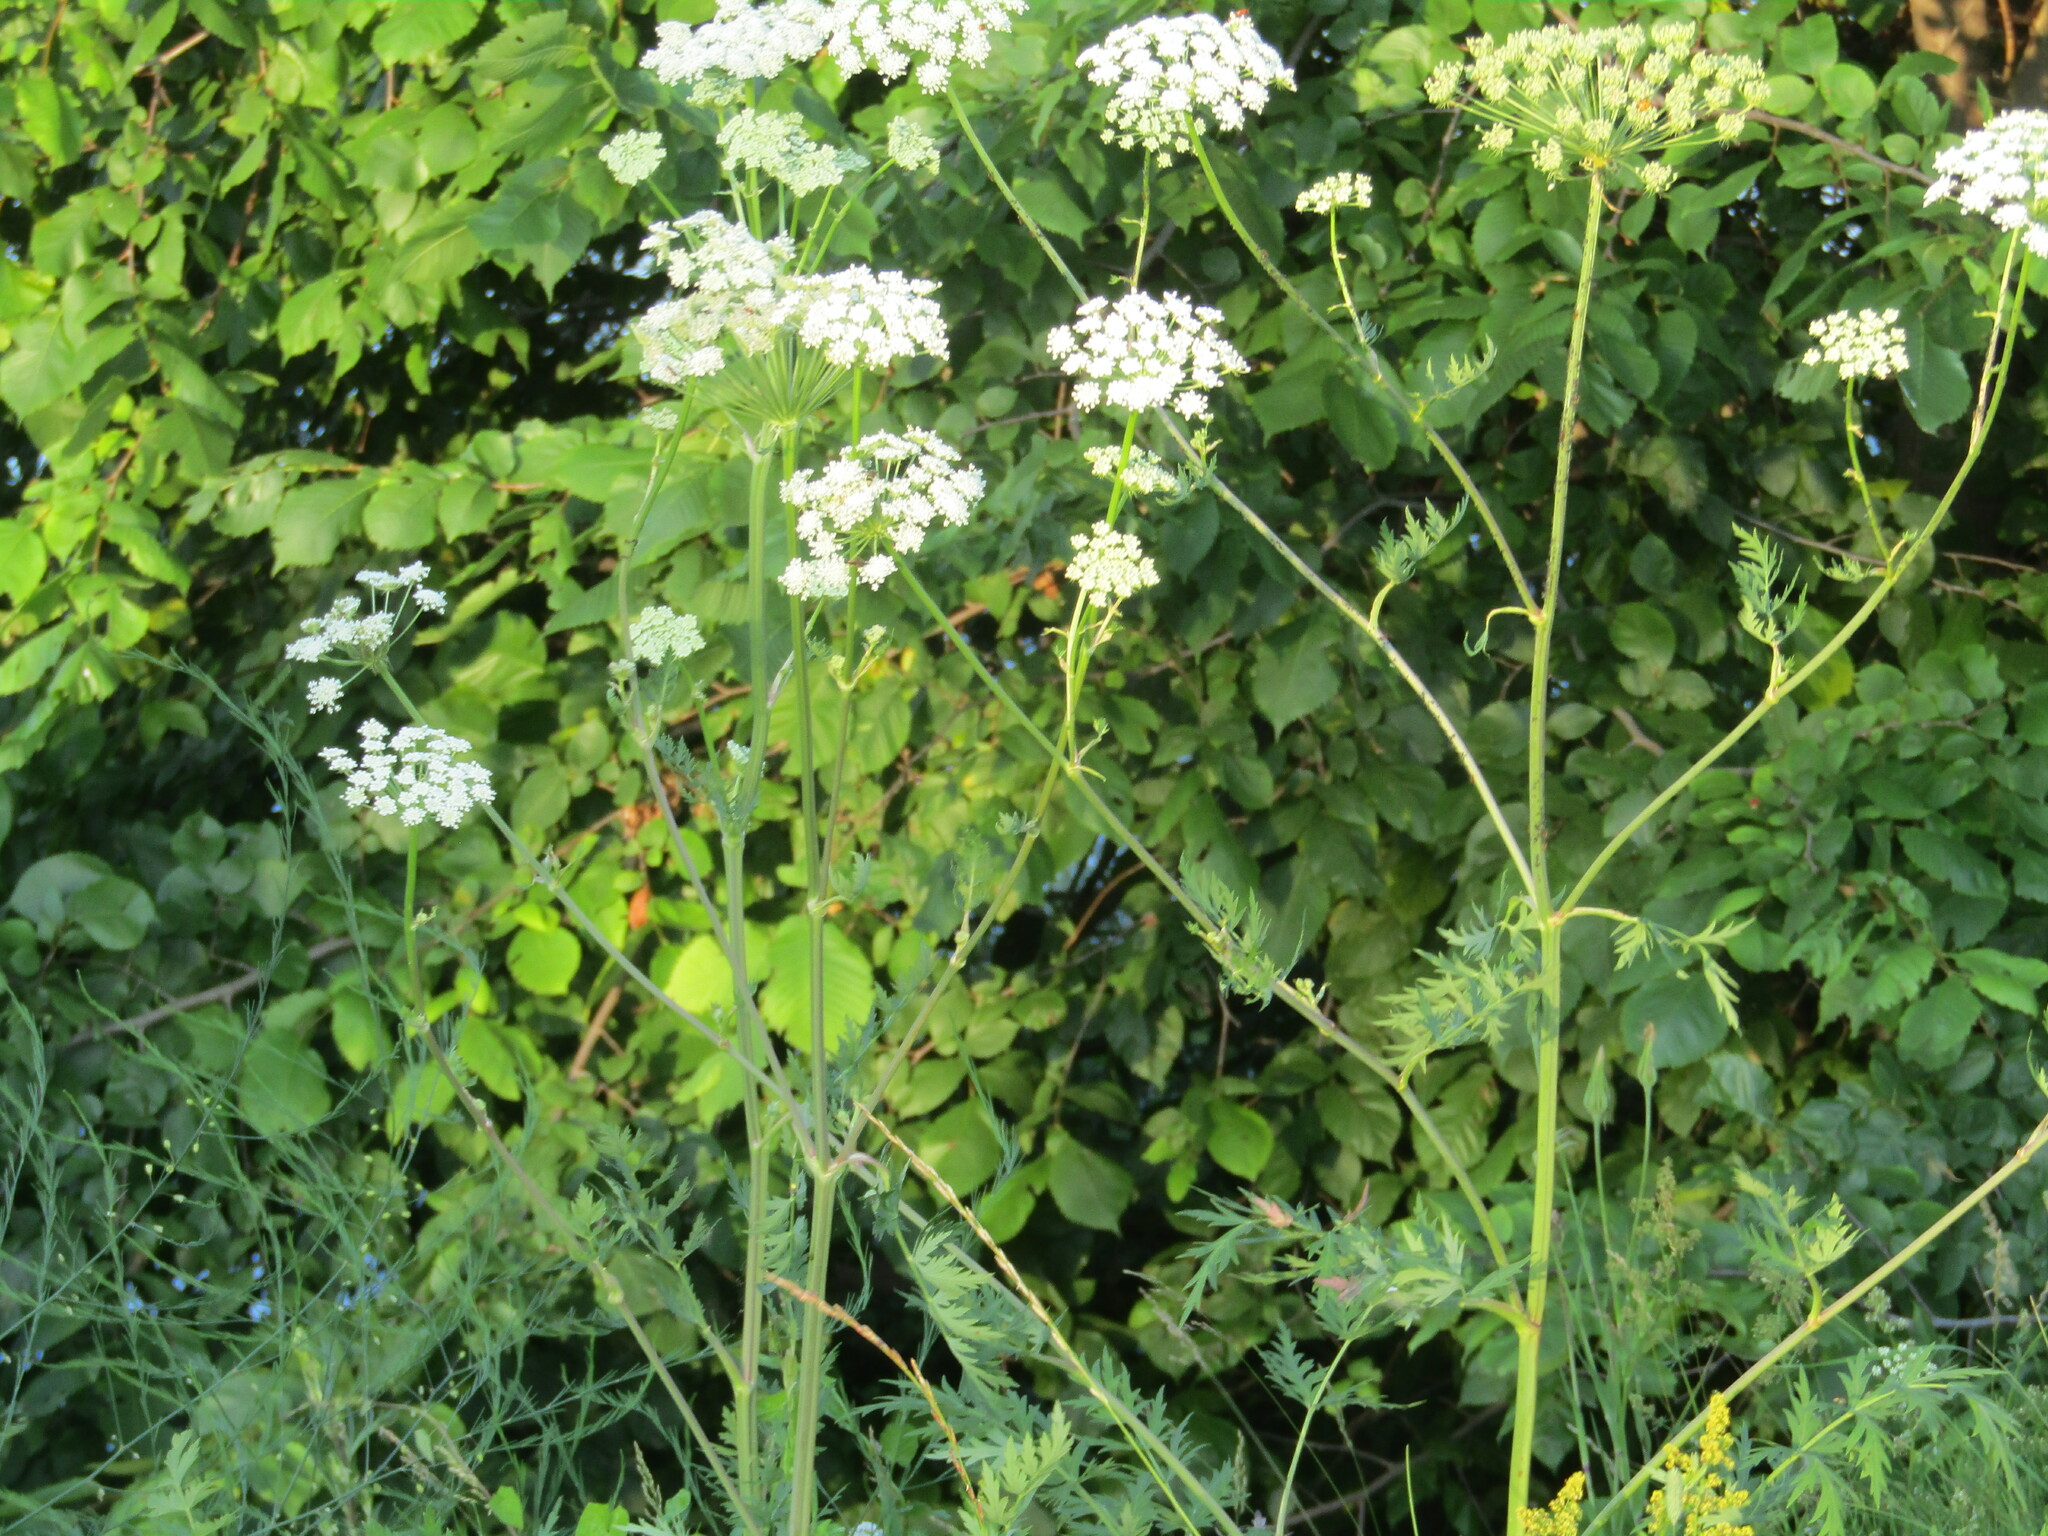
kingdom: Plantae
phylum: Tracheophyta
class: Magnoliopsida
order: Apiales
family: Apiaceae
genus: Seseli
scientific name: Seseli libanotis
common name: Mooncarrot
